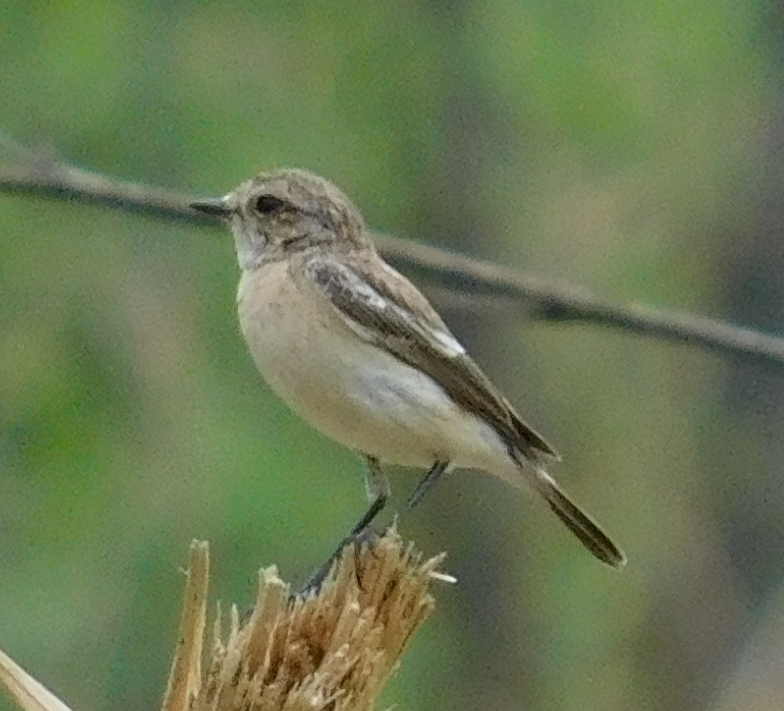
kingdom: Animalia
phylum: Chordata
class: Aves
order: Passeriformes
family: Muscicapidae
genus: Saxicola
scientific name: Saxicola maurus
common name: Siberian stonechat
